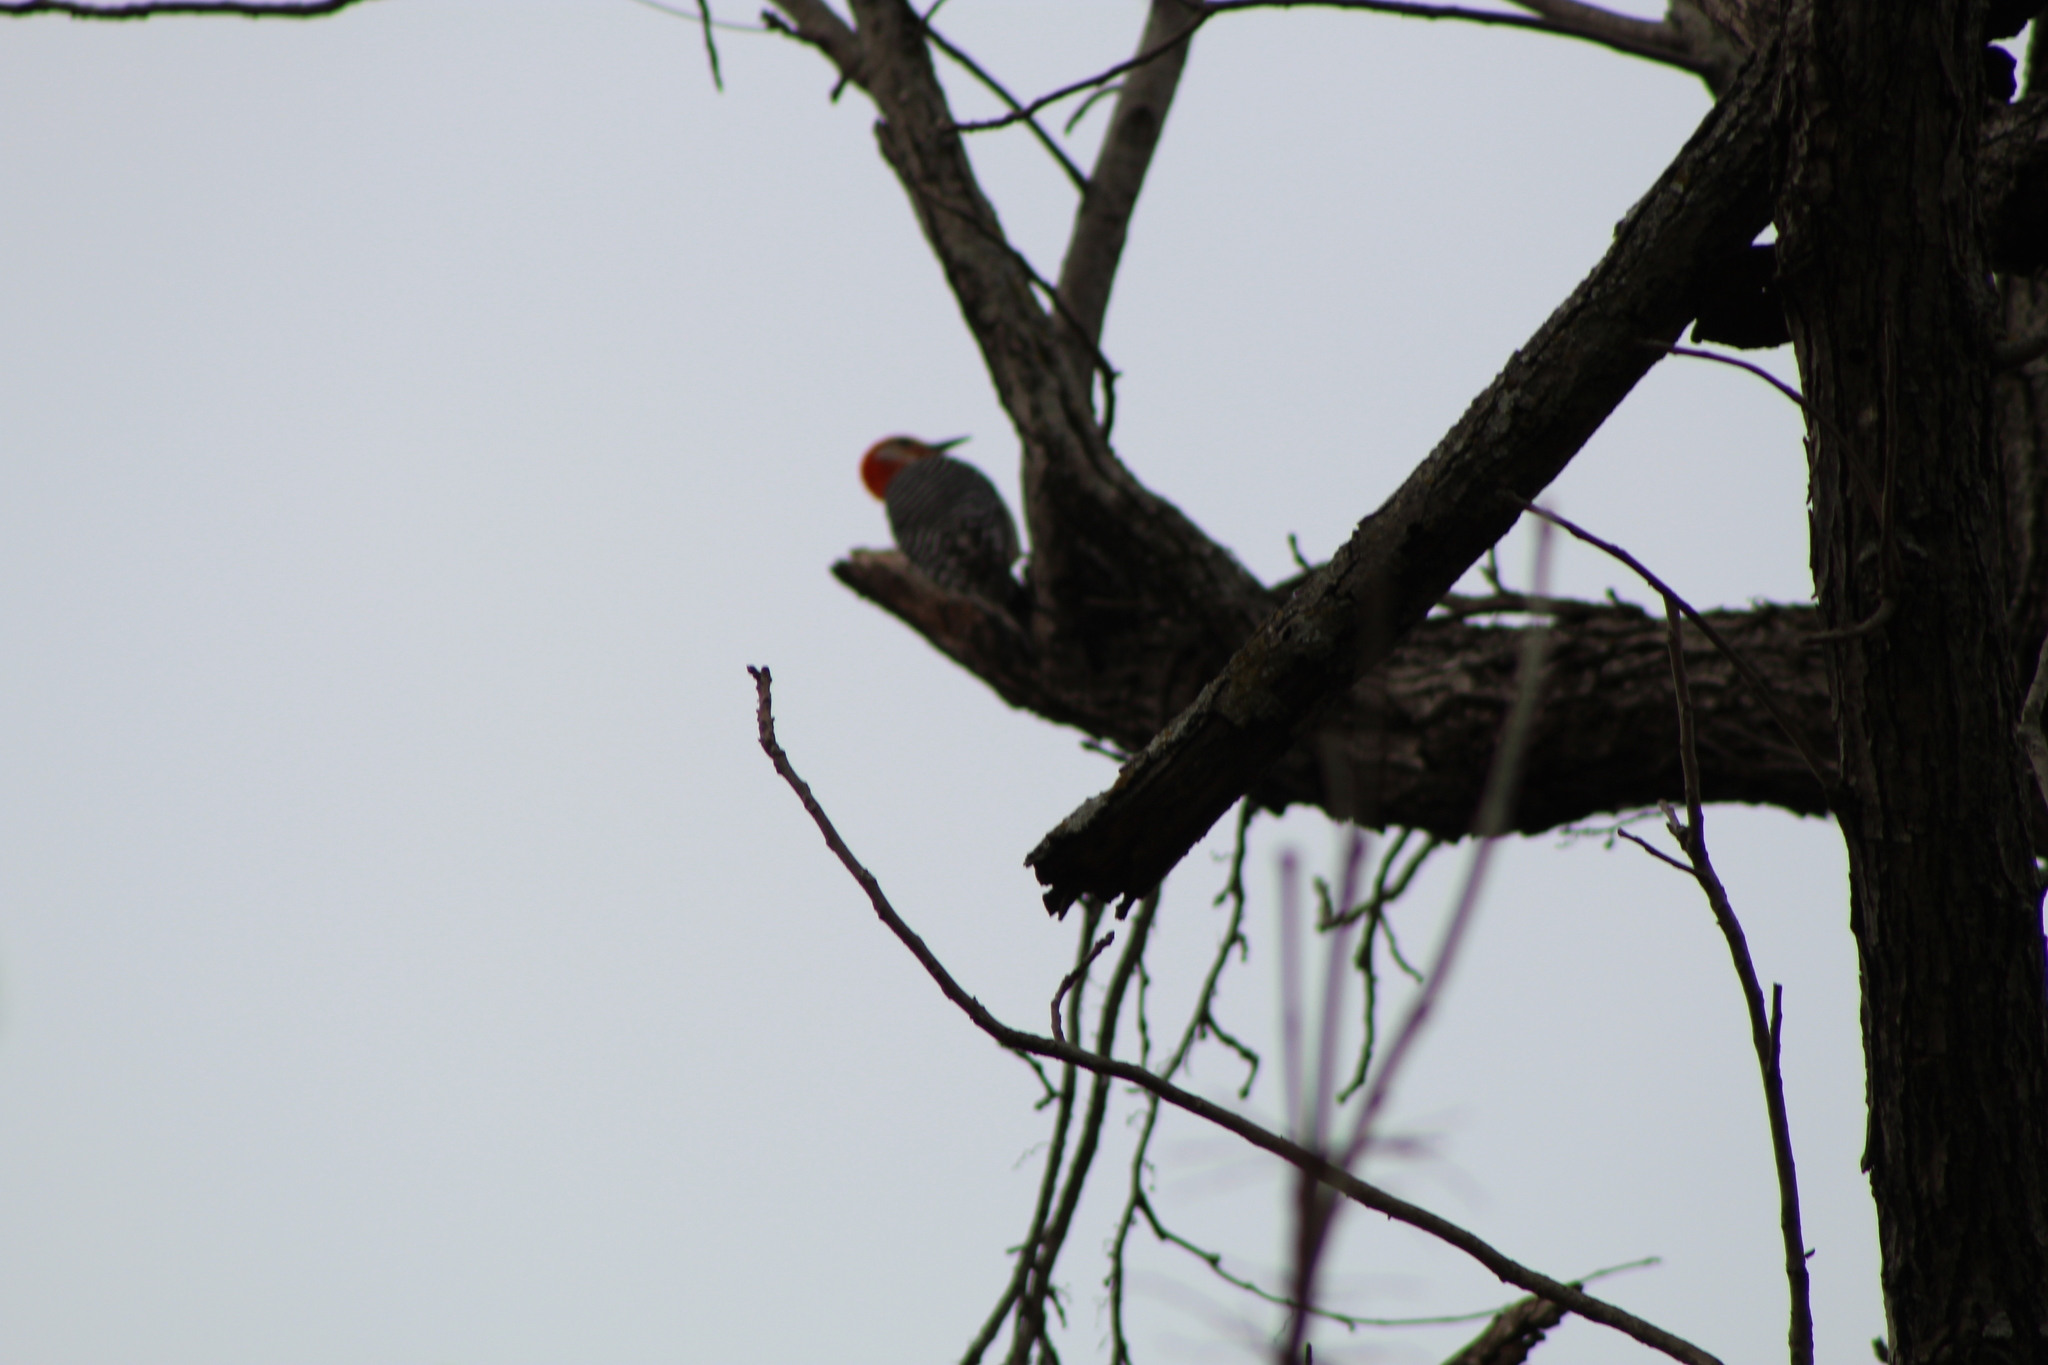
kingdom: Animalia
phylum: Chordata
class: Aves
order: Piciformes
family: Picidae
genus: Melanerpes
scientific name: Melanerpes carolinus
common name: Red-bellied woodpecker
